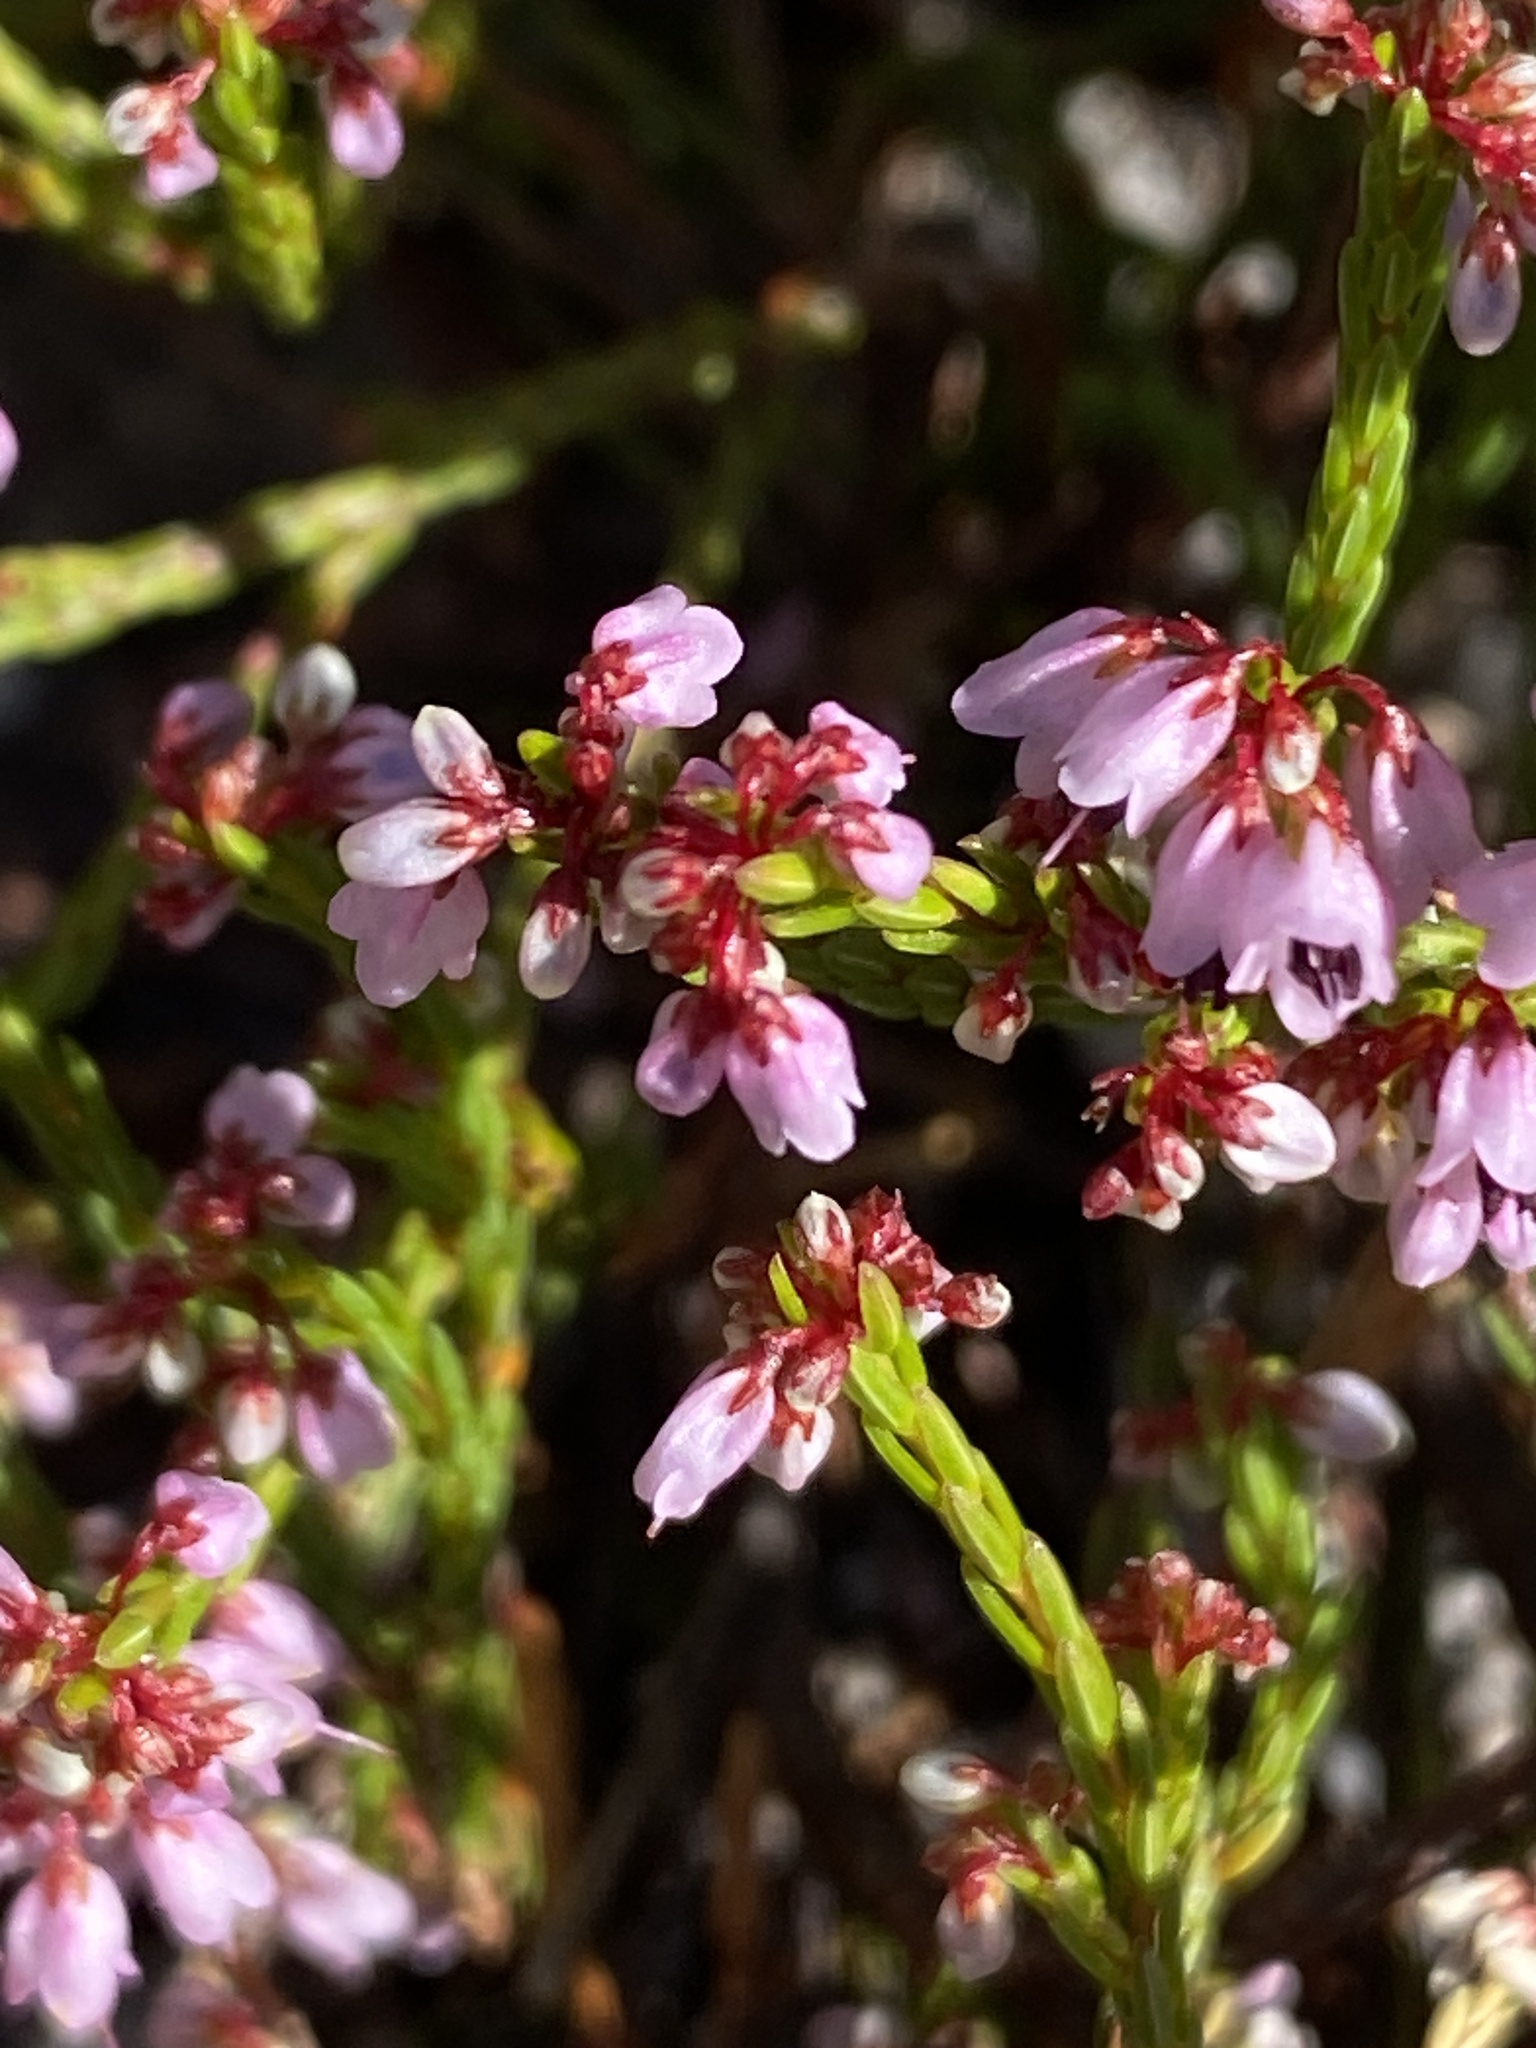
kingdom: Plantae
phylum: Tracheophyta
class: Magnoliopsida
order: Ericales
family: Ericaceae
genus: Erica
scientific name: Erica equisetifolia
